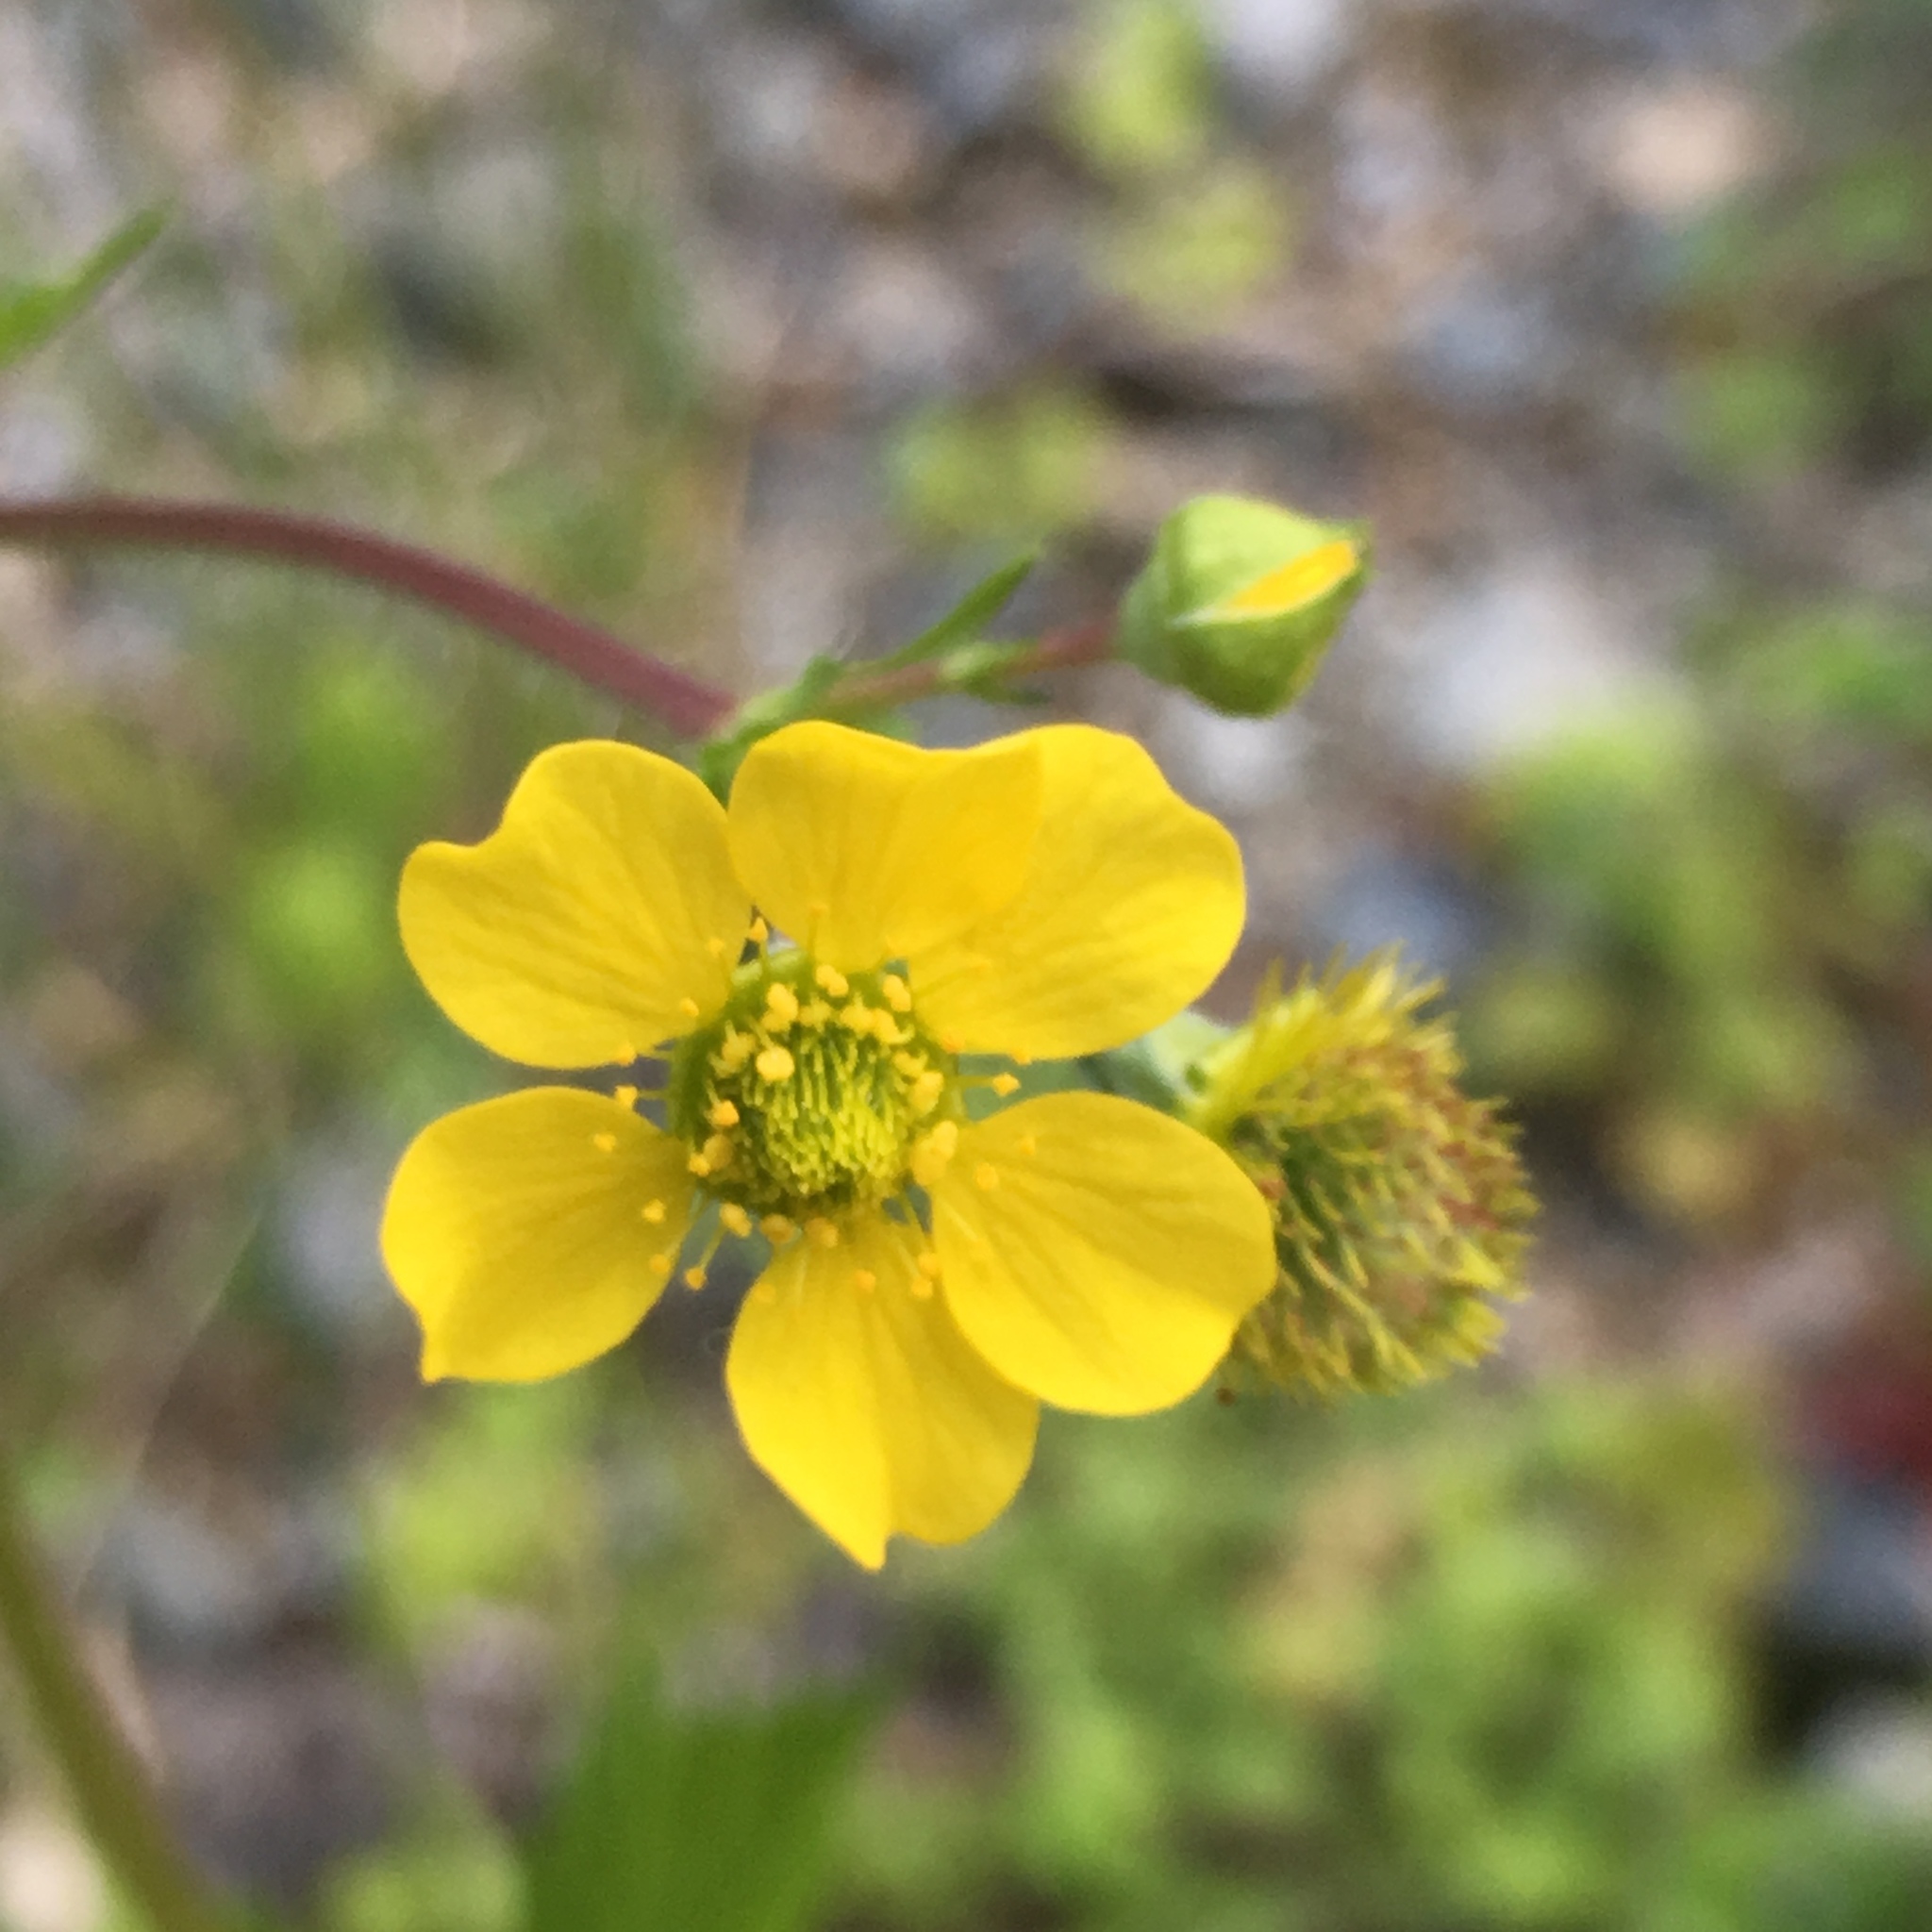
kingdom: Plantae
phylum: Tracheophyta
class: Magnoliopsida
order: Rosales
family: Rosaceae
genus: Geum
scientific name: Geum macrophyllum
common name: Large-leaved avens
